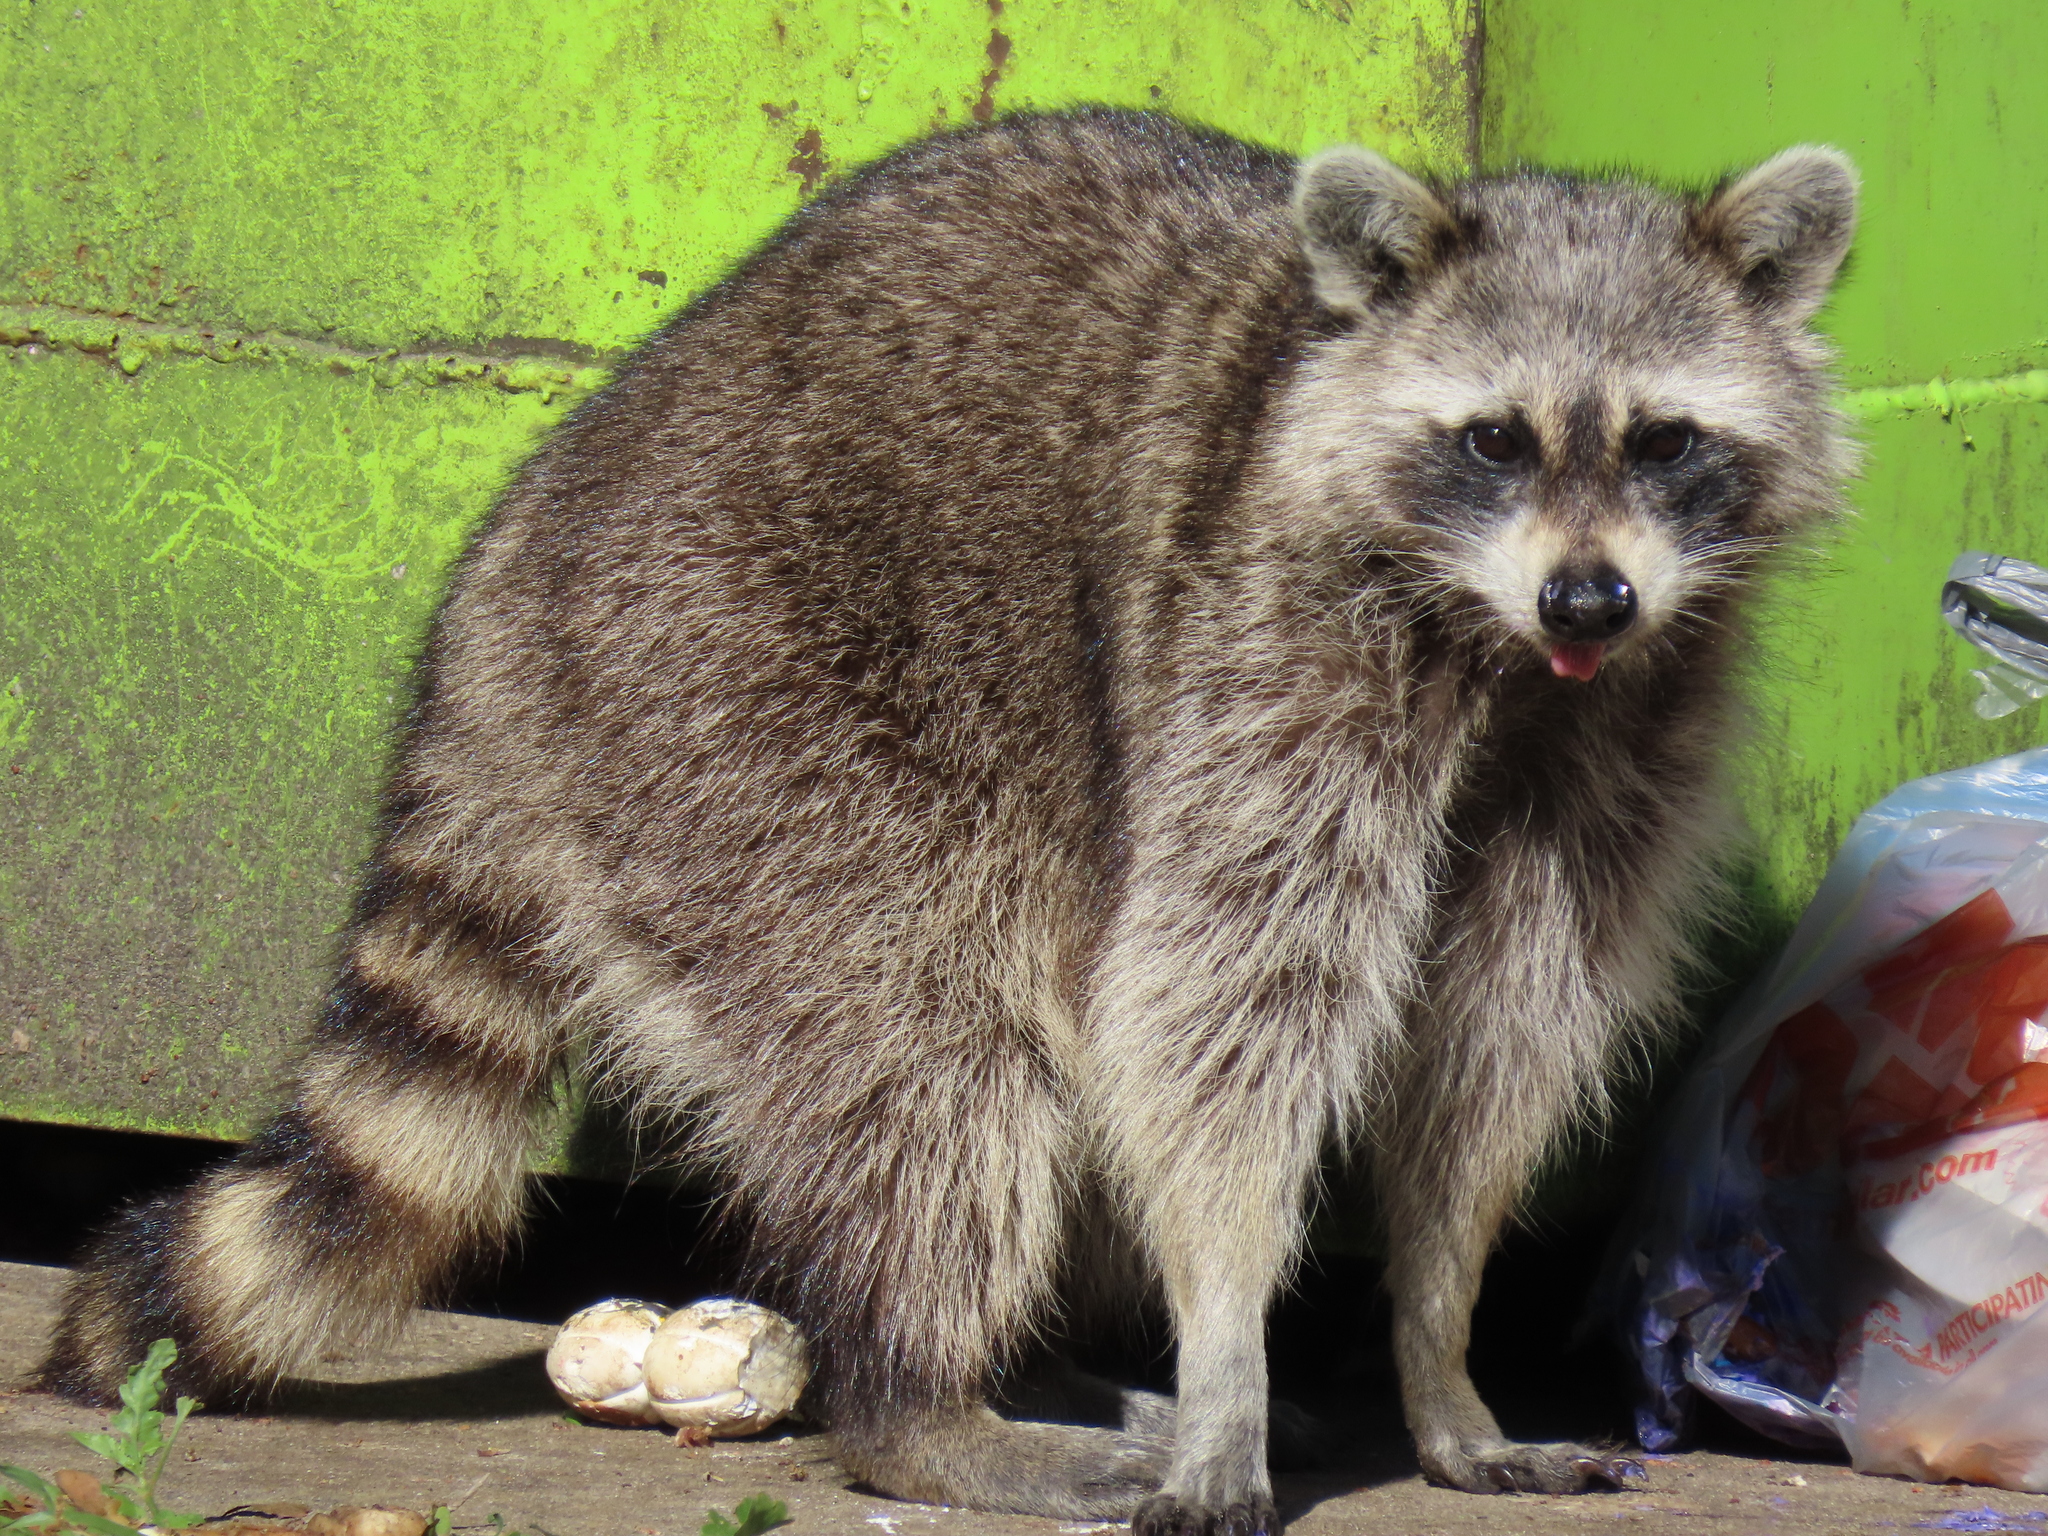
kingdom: Animalia
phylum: Chordata
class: Mammalia
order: Carnivora
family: Procyonidae
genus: Procyon
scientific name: Procyon lotor
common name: Raccoon
